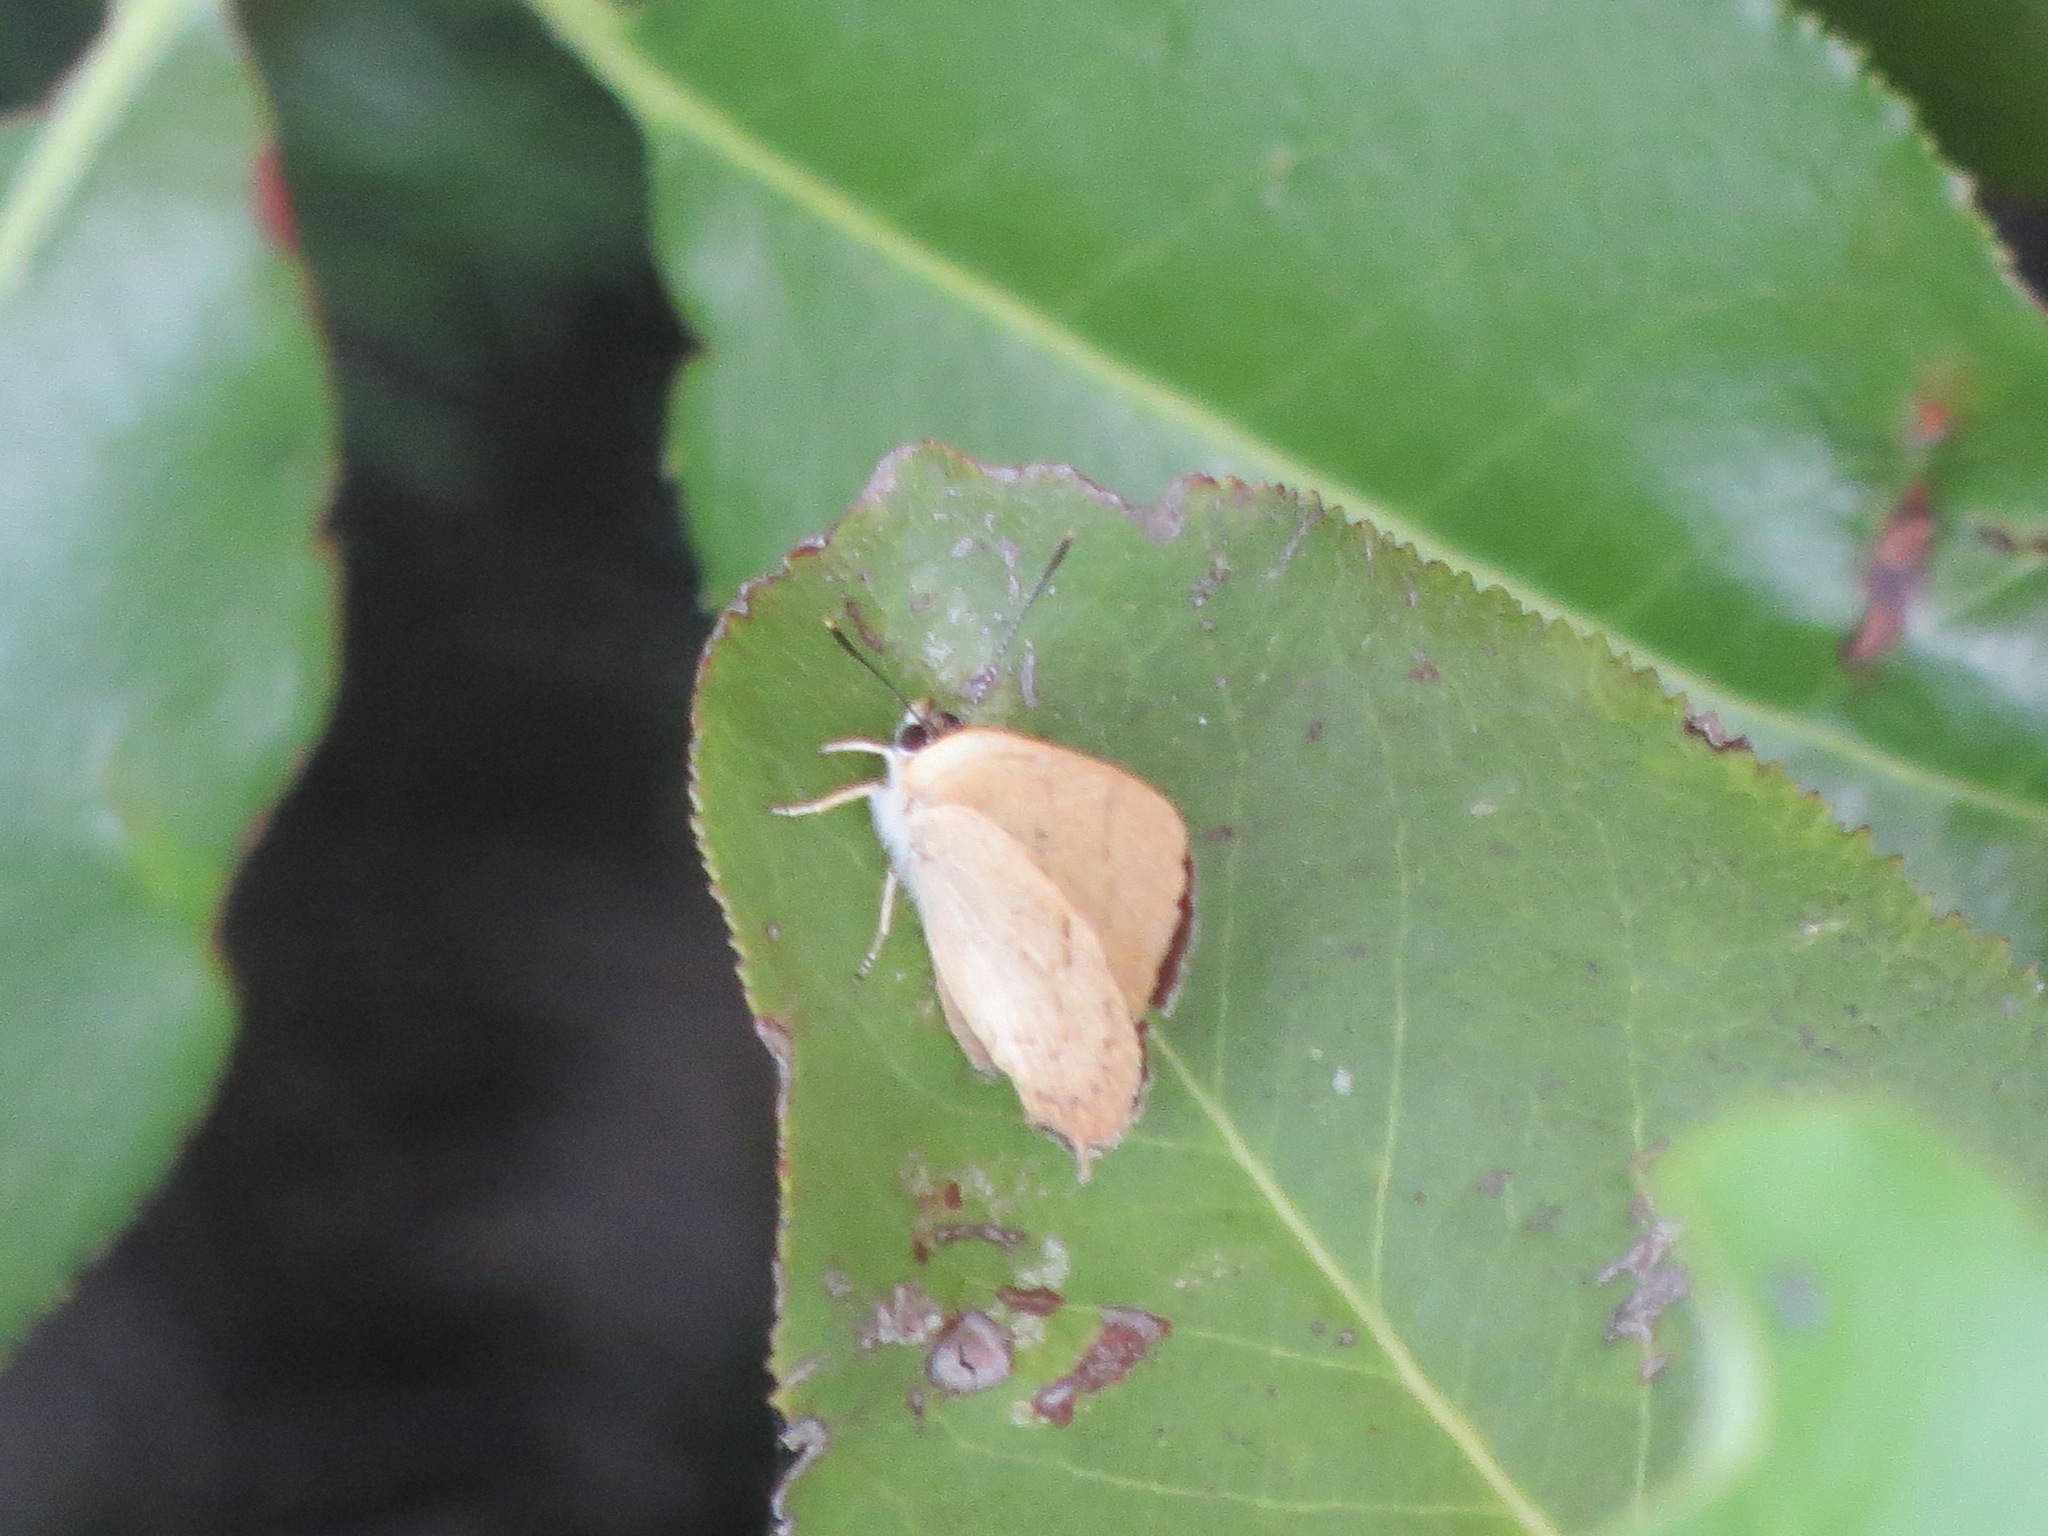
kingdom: Animalia
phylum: Arthropoda
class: Insecta
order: Lepidoptera
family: Lycaenidae
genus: Habrodais
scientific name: Habrodais grunus
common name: Golden hairstreak
